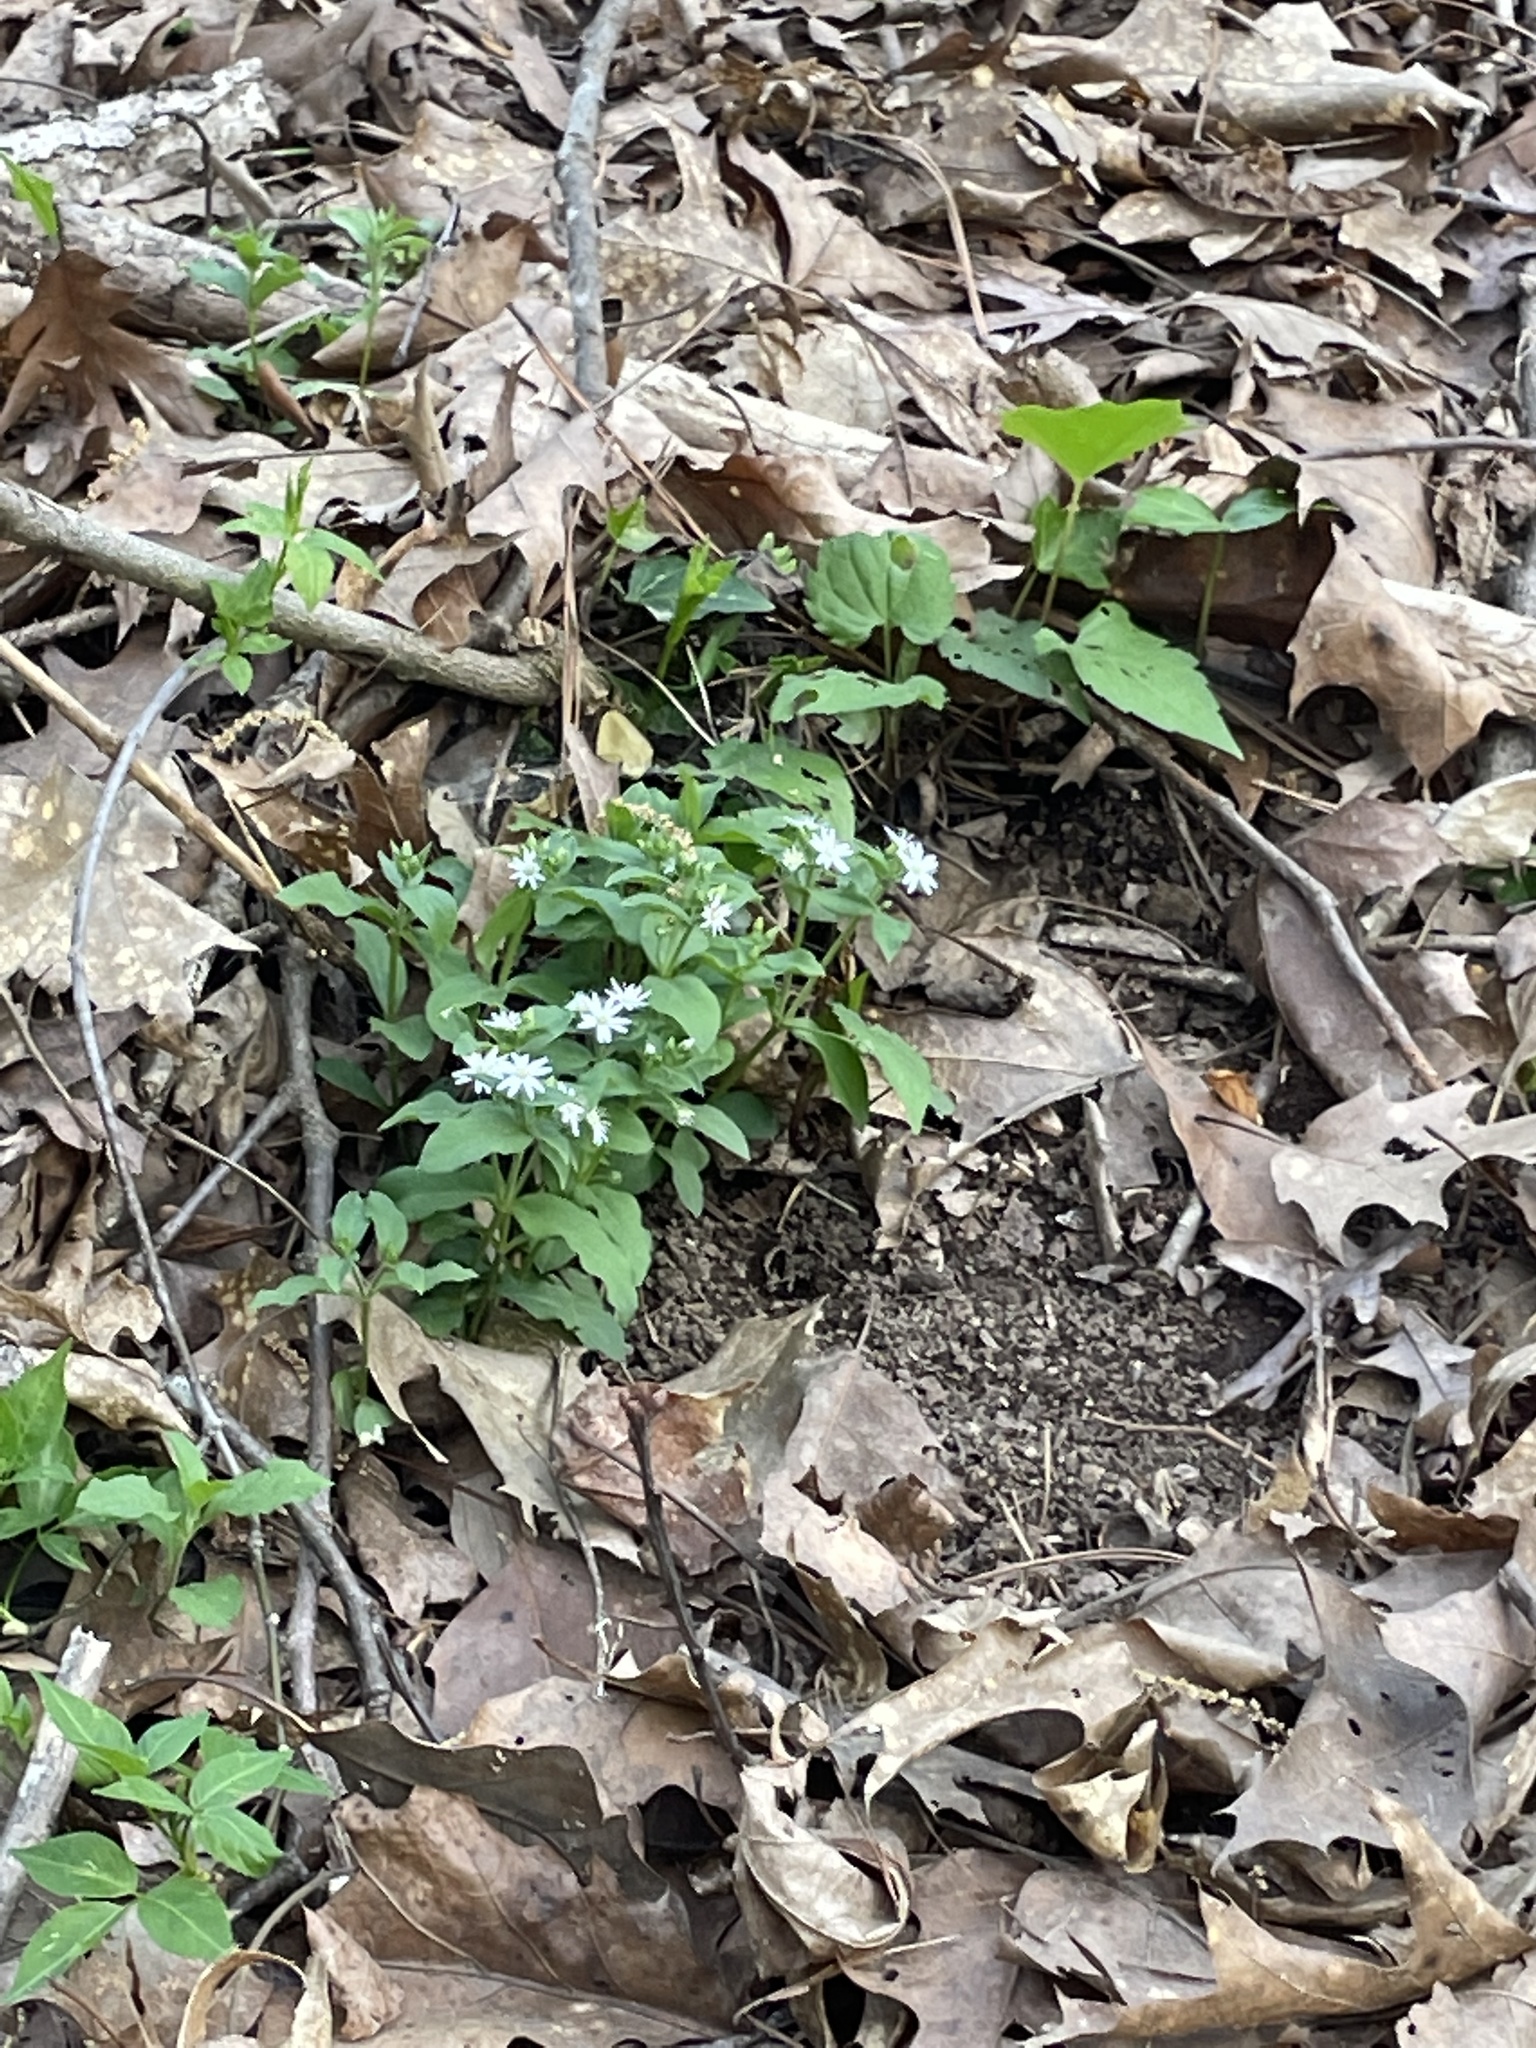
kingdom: Plantae
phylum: Tracheophyta
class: Magnoliopsida
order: Caryophyllales
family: Caryophyllaceae
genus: Stellaria
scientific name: Stellaria pubera
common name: Star chickweed
